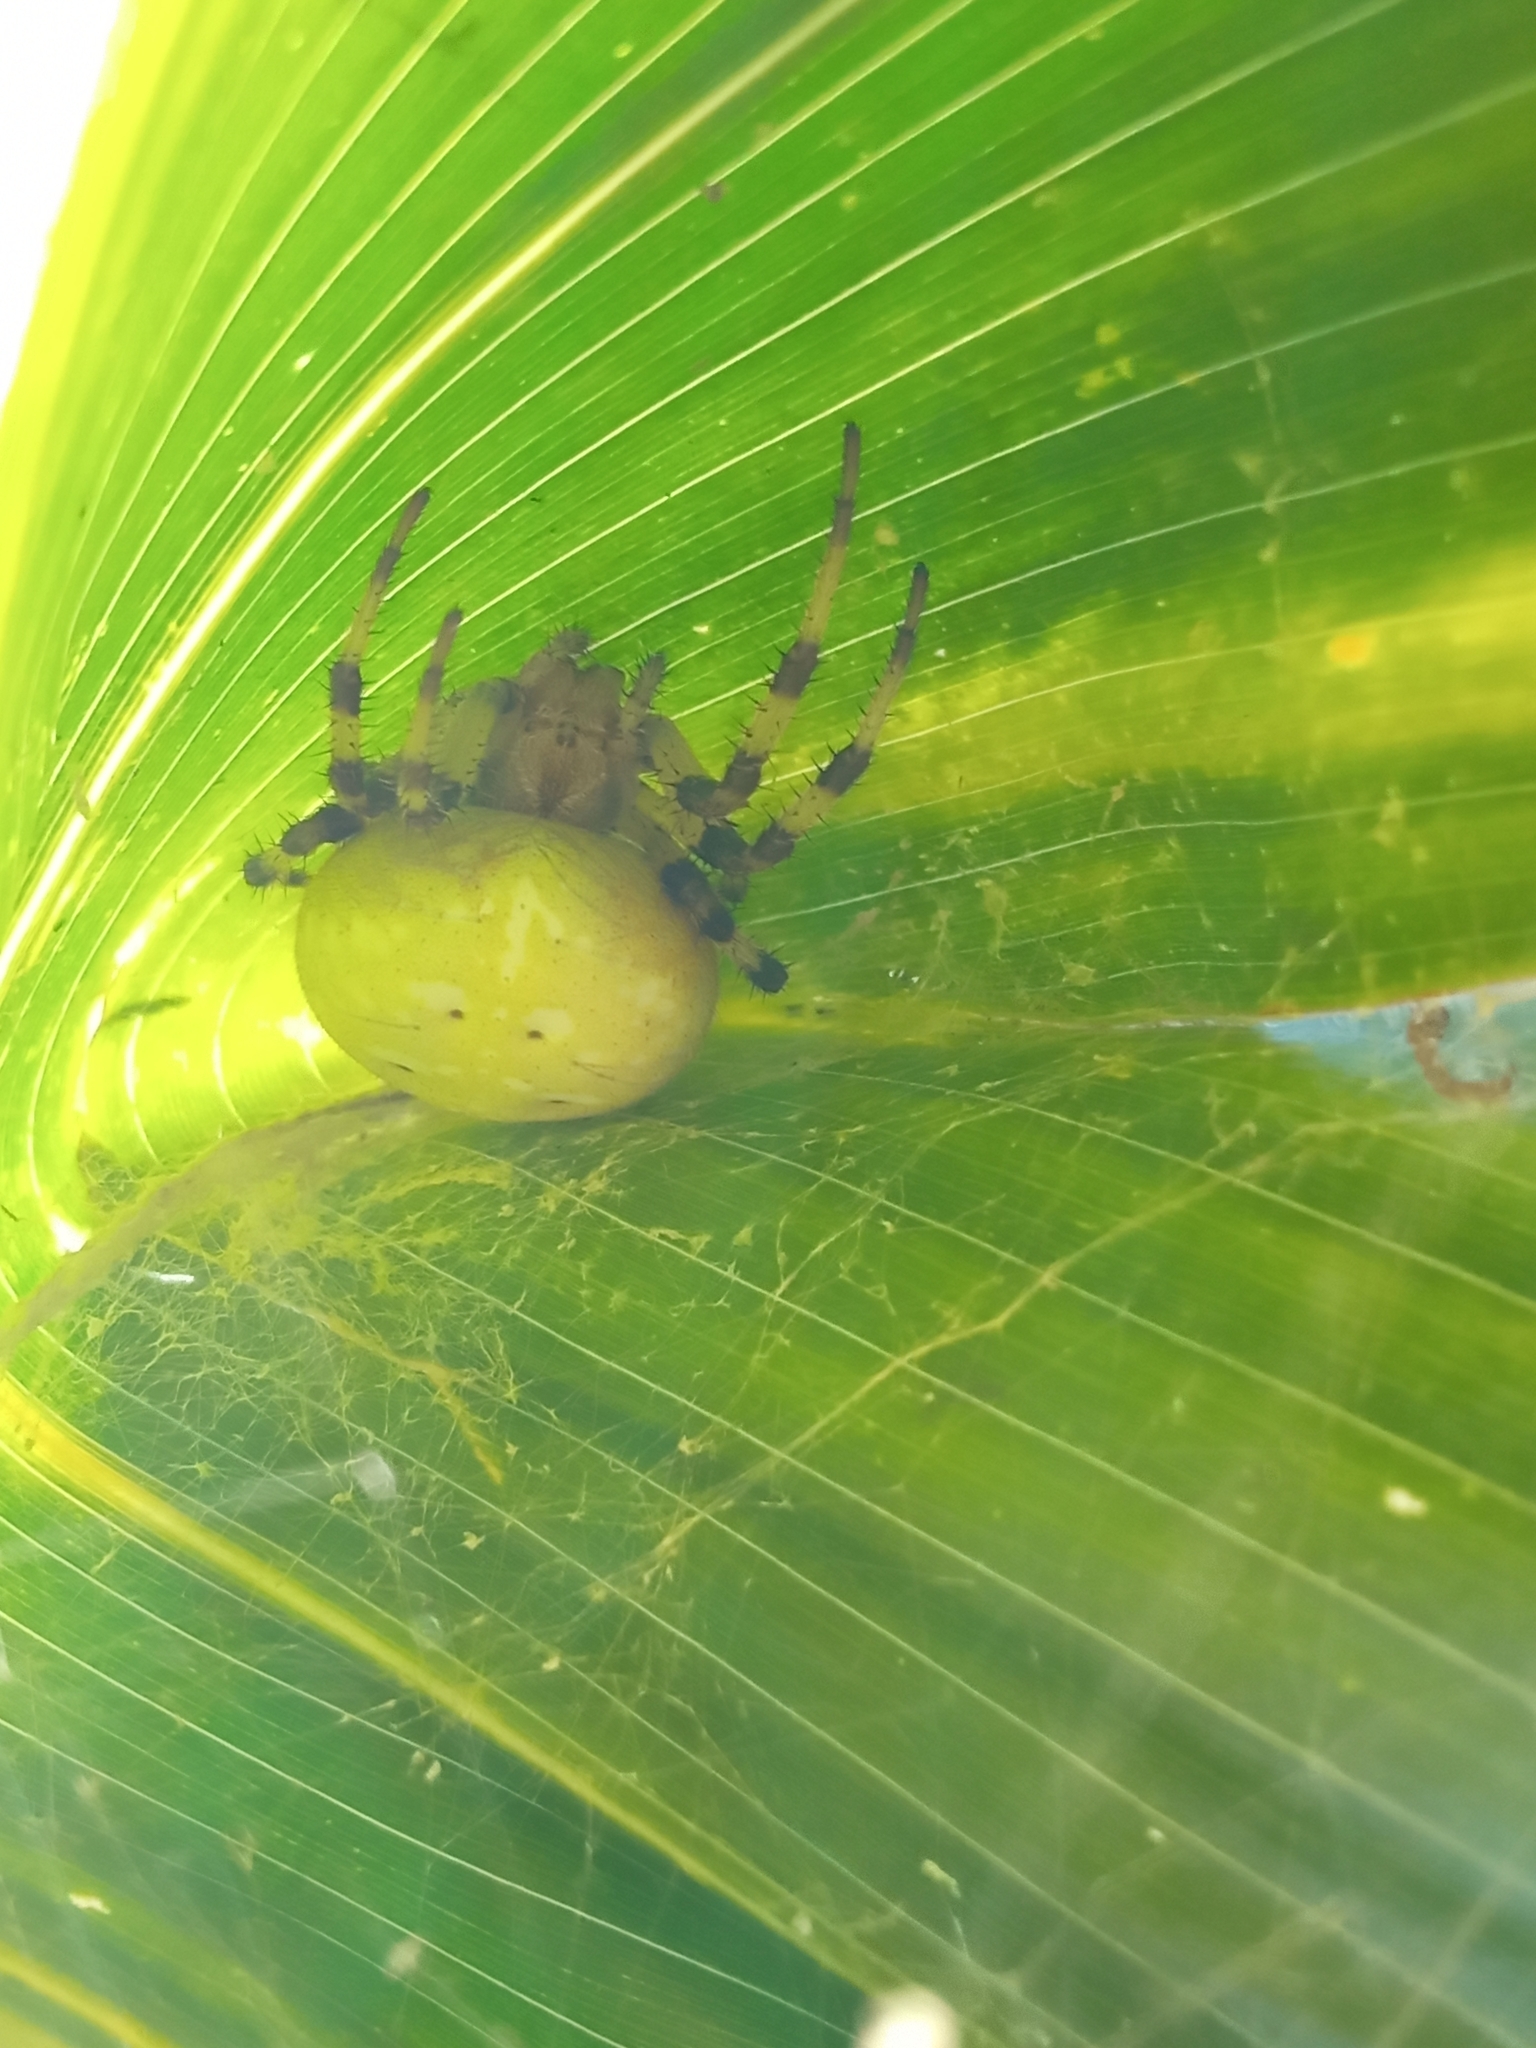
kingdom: Animalia
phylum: Arthropoda
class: Arachnida
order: Araneae
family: Araneidae
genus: Araneus
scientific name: Araneus quadratus
